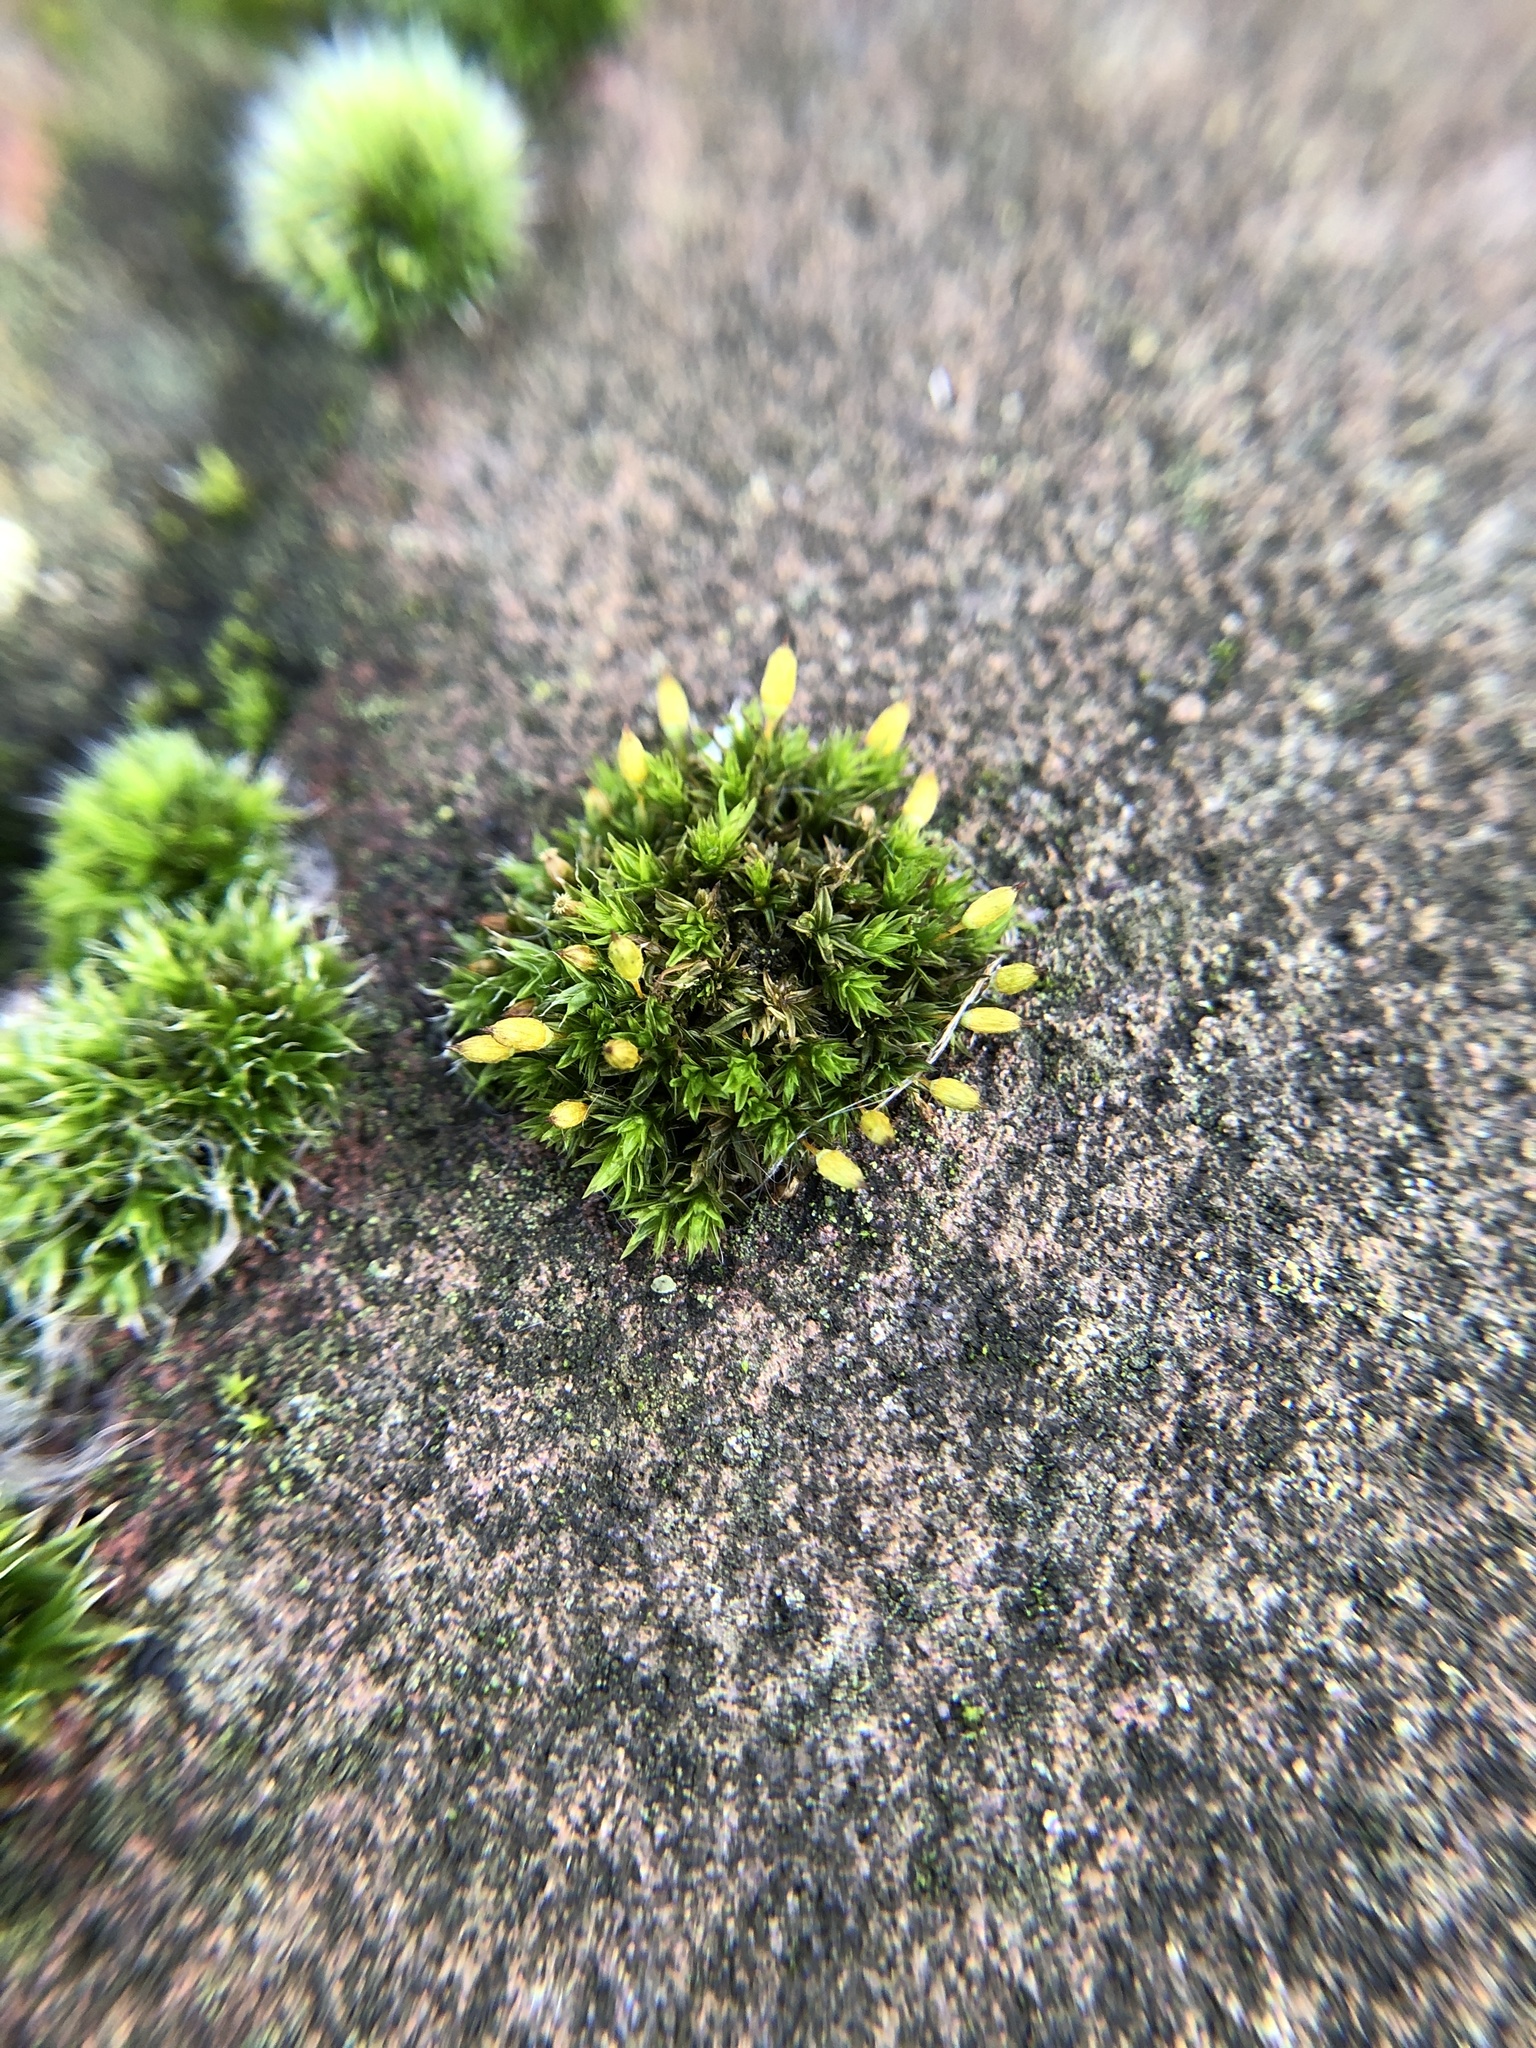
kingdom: Plantae
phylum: Bryophyta
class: Bryopsida
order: Orthotrichales
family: Orthotrichaceae
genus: Orthotrichum
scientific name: Orthotrichum anomalum
